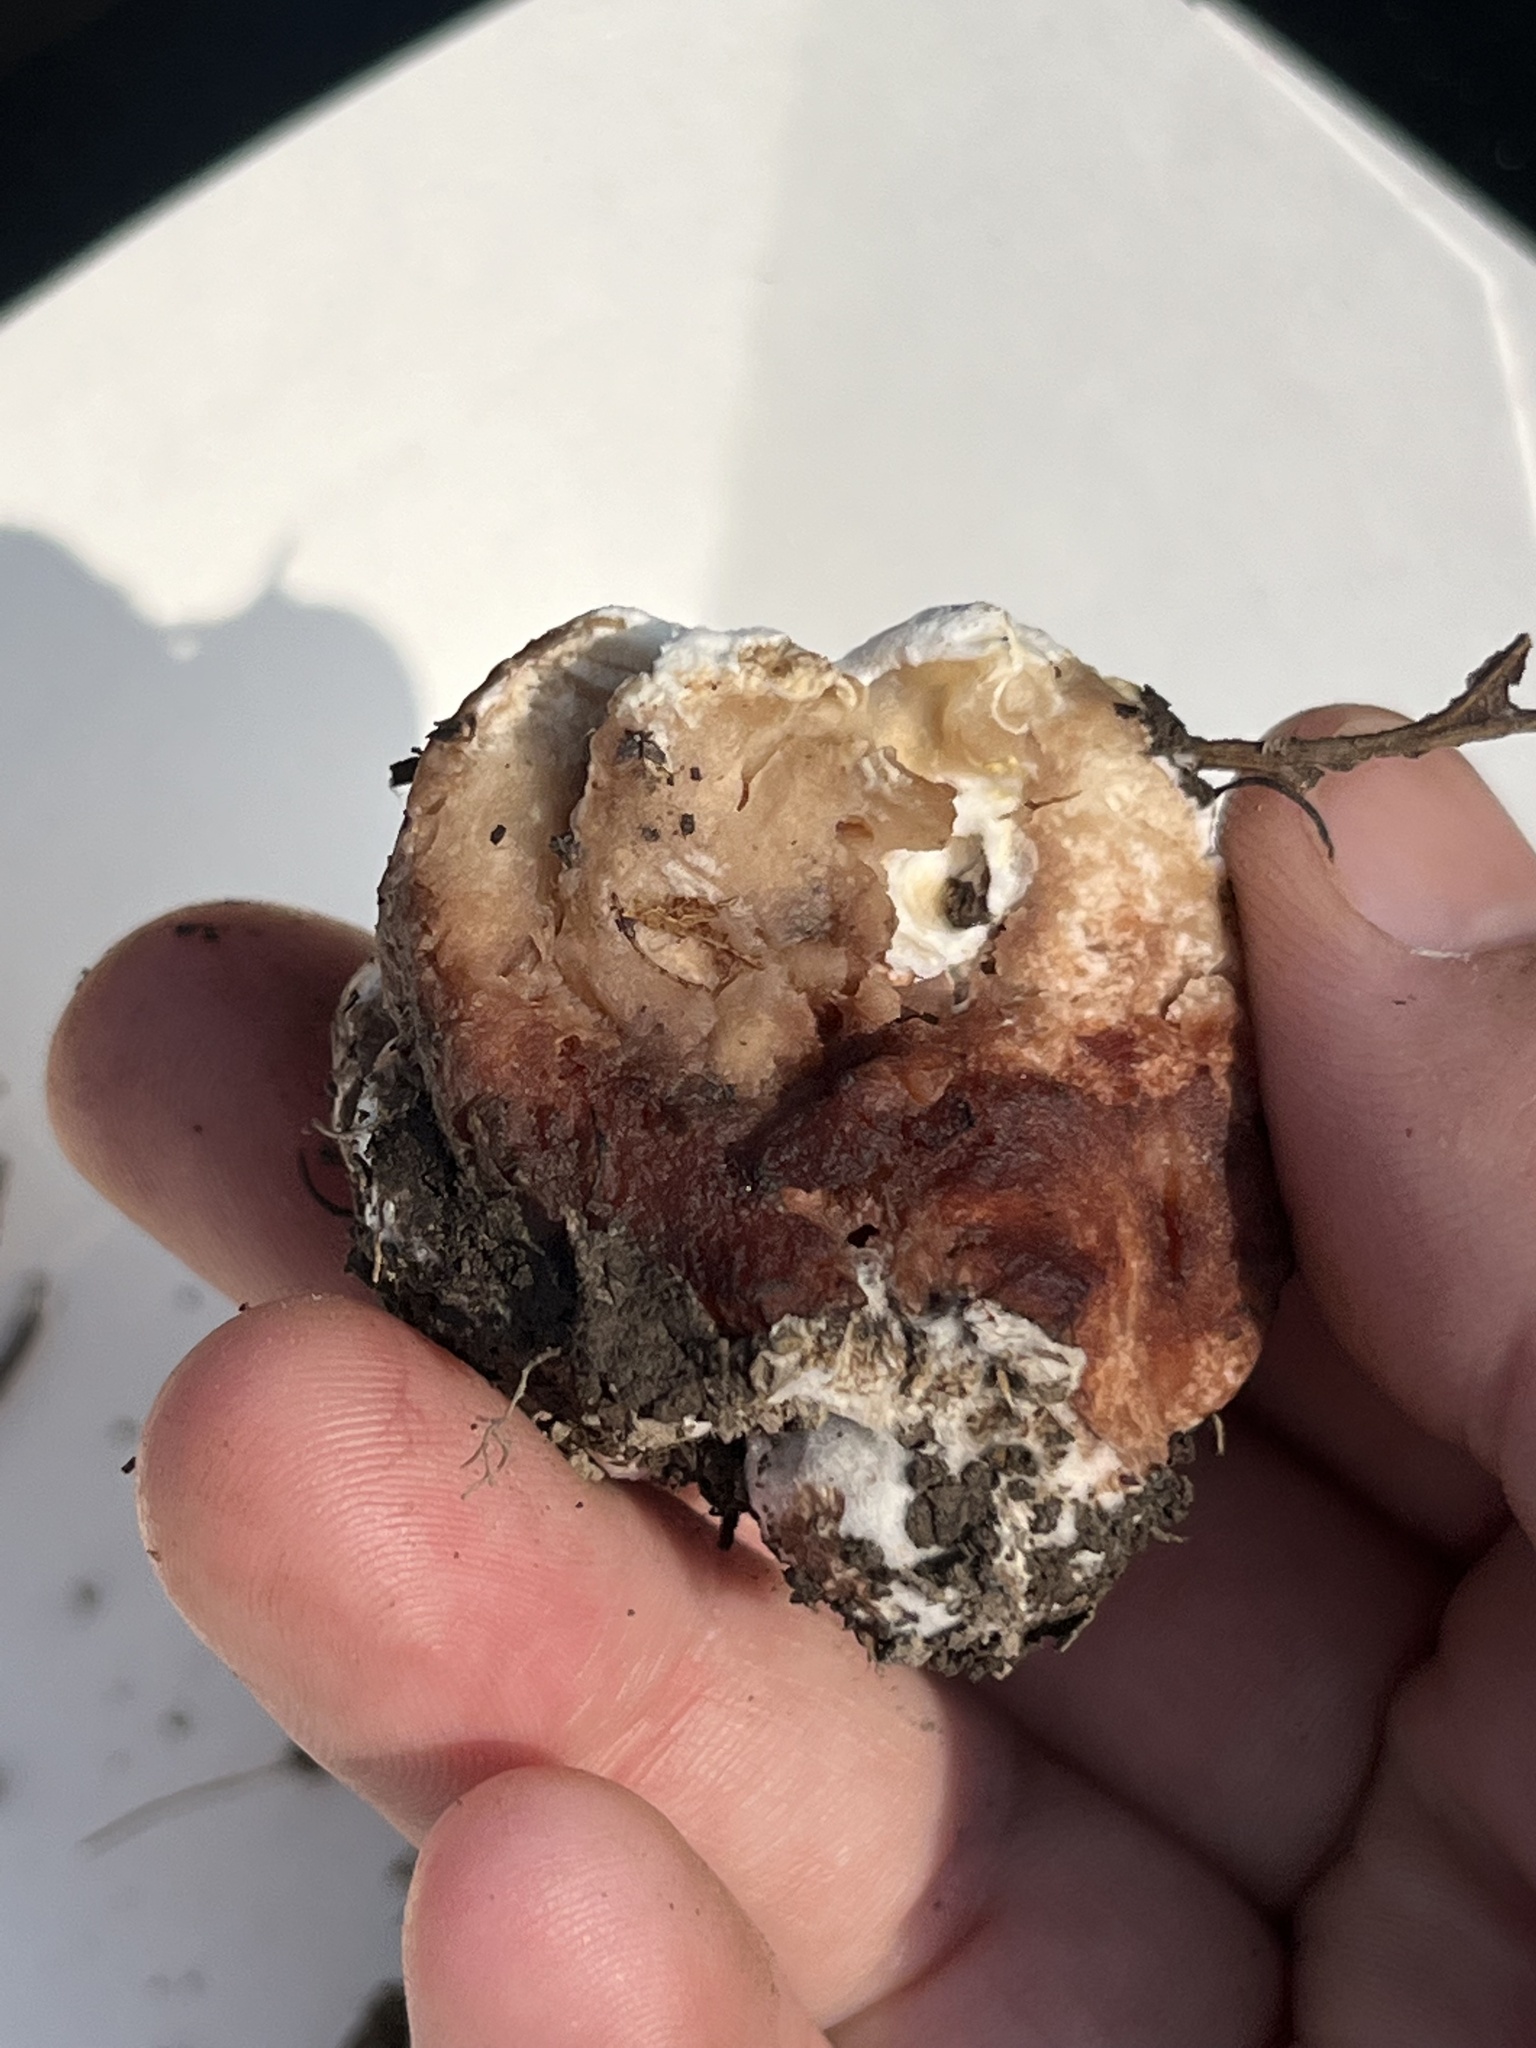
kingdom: Fungi
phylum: Basidiomycota
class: Agaricomycetes
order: Polyporales
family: Podoscyphaceae
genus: Abortiporus
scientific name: Abortiporus biennis
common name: Blushing rosette
